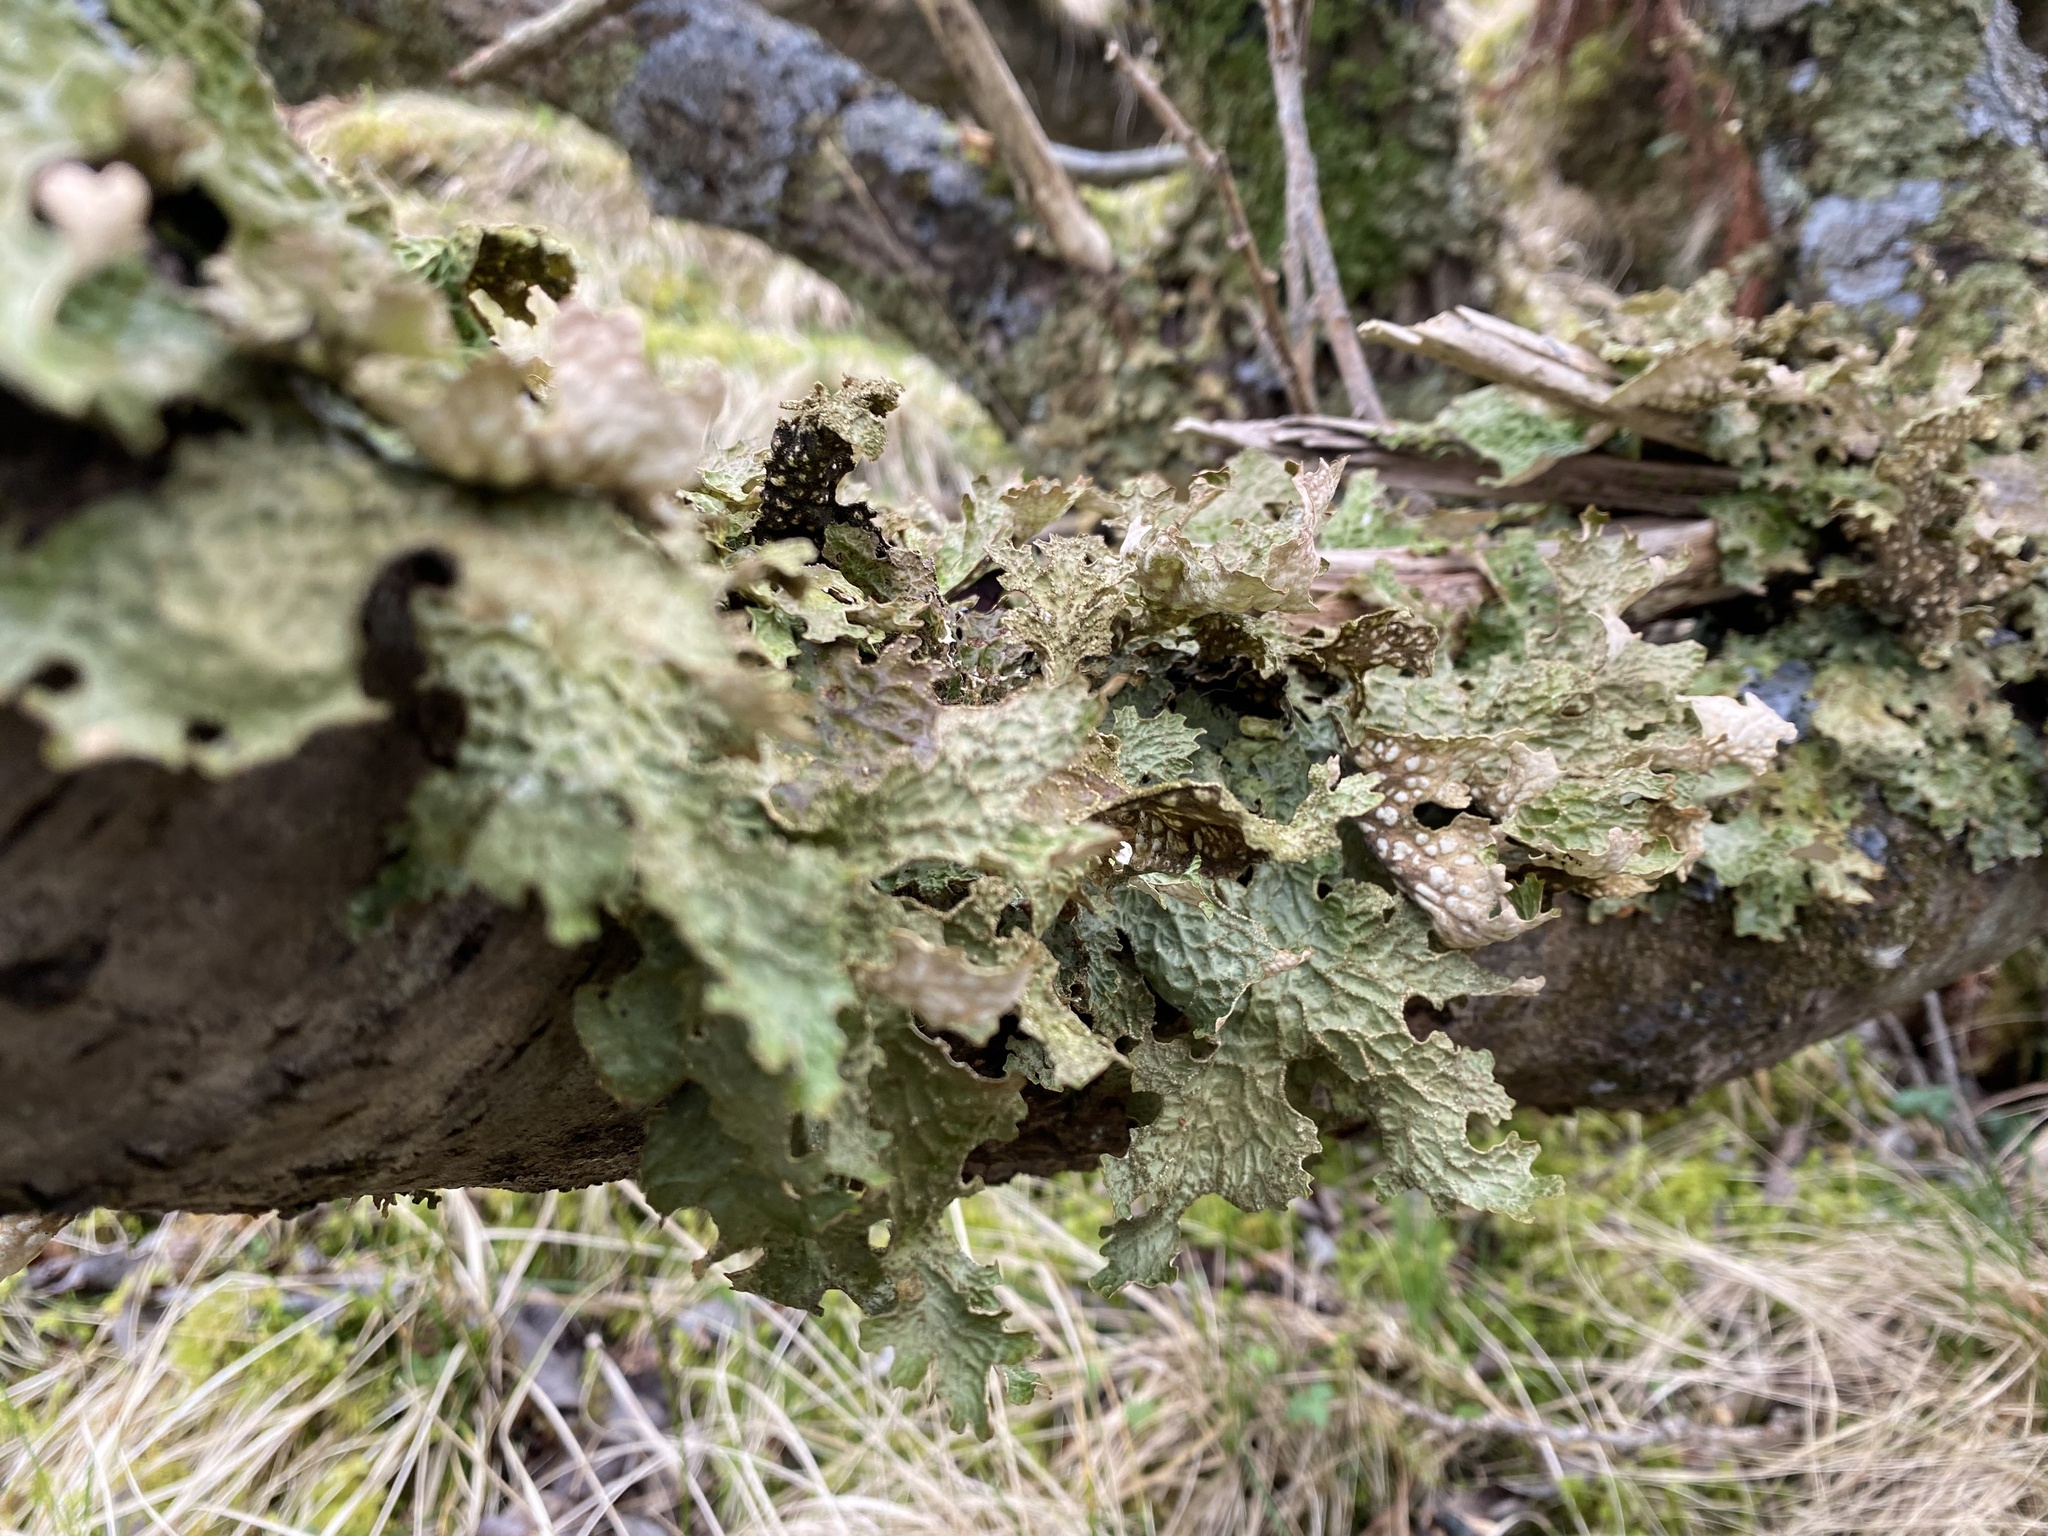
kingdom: Fungi
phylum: Ascomycota
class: Lecanoromycetes
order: Peltigerales
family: Lobariaceae
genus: Lobaria
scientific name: Lobaria pulmonaria
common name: Lungwort
